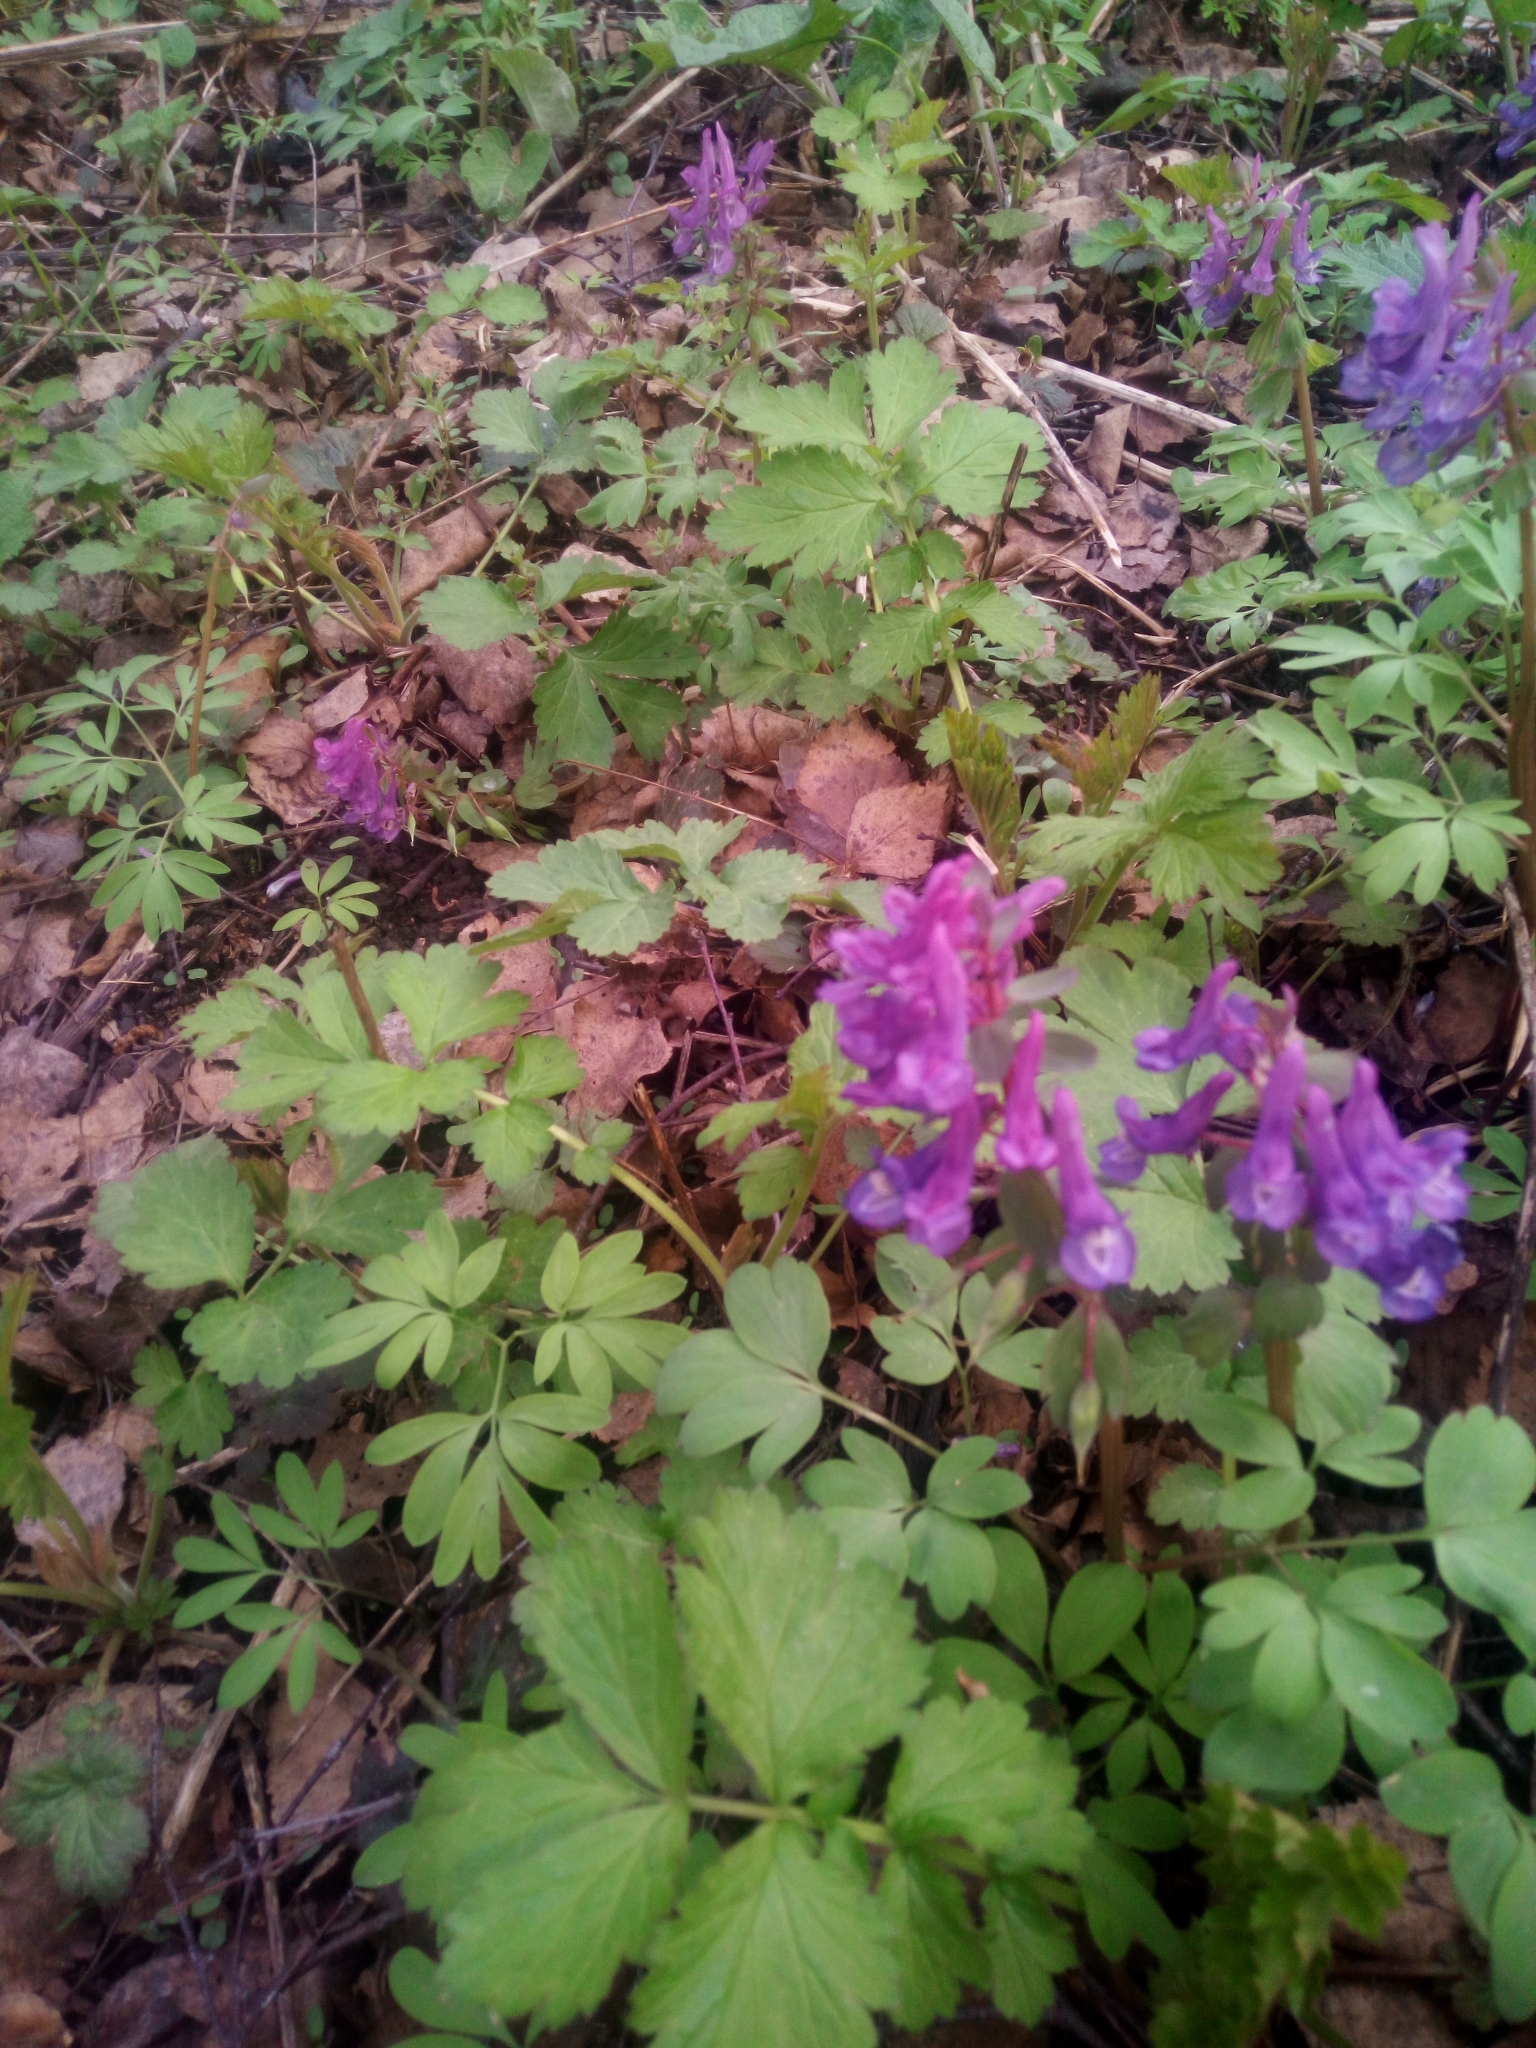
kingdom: Plantae
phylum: Tracheophyta
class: Magnoliopsida
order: Ranunculales
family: Papaveraceae
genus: Corydalis
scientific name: Corydalis solida
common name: Bird-in-a-bush
